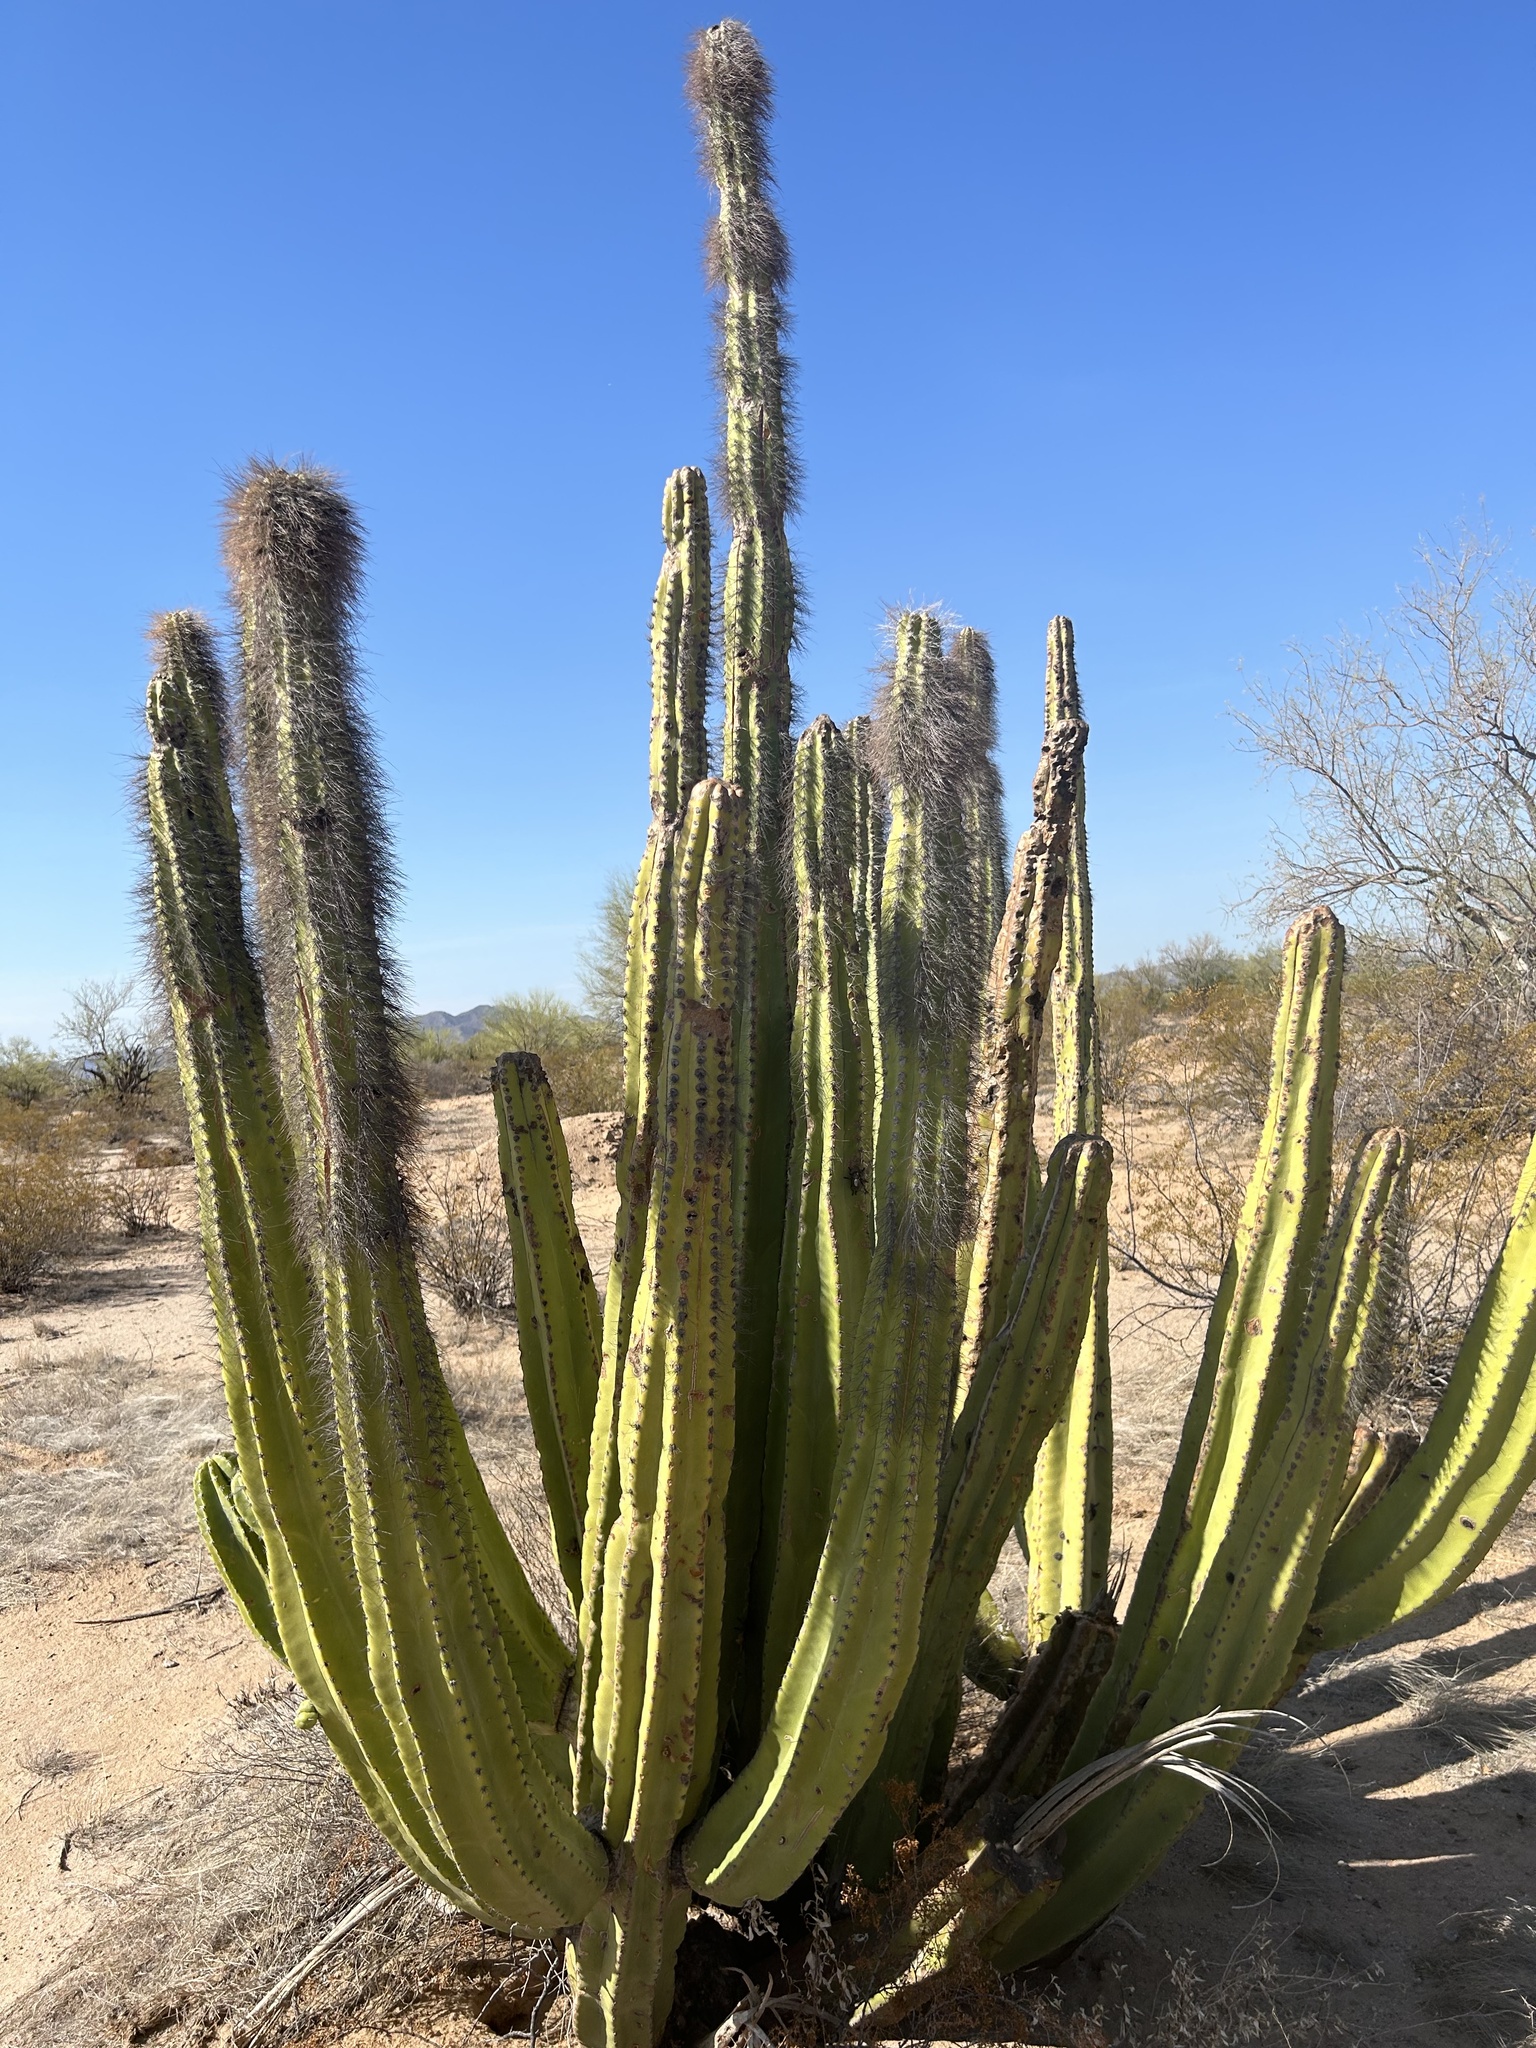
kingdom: Plantae
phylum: Tracheophyta
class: Magnoliopsida
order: Caryophyllales
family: Cactaceae
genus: Pachycereus
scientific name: Pachycereus schottii
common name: Senita cactus
